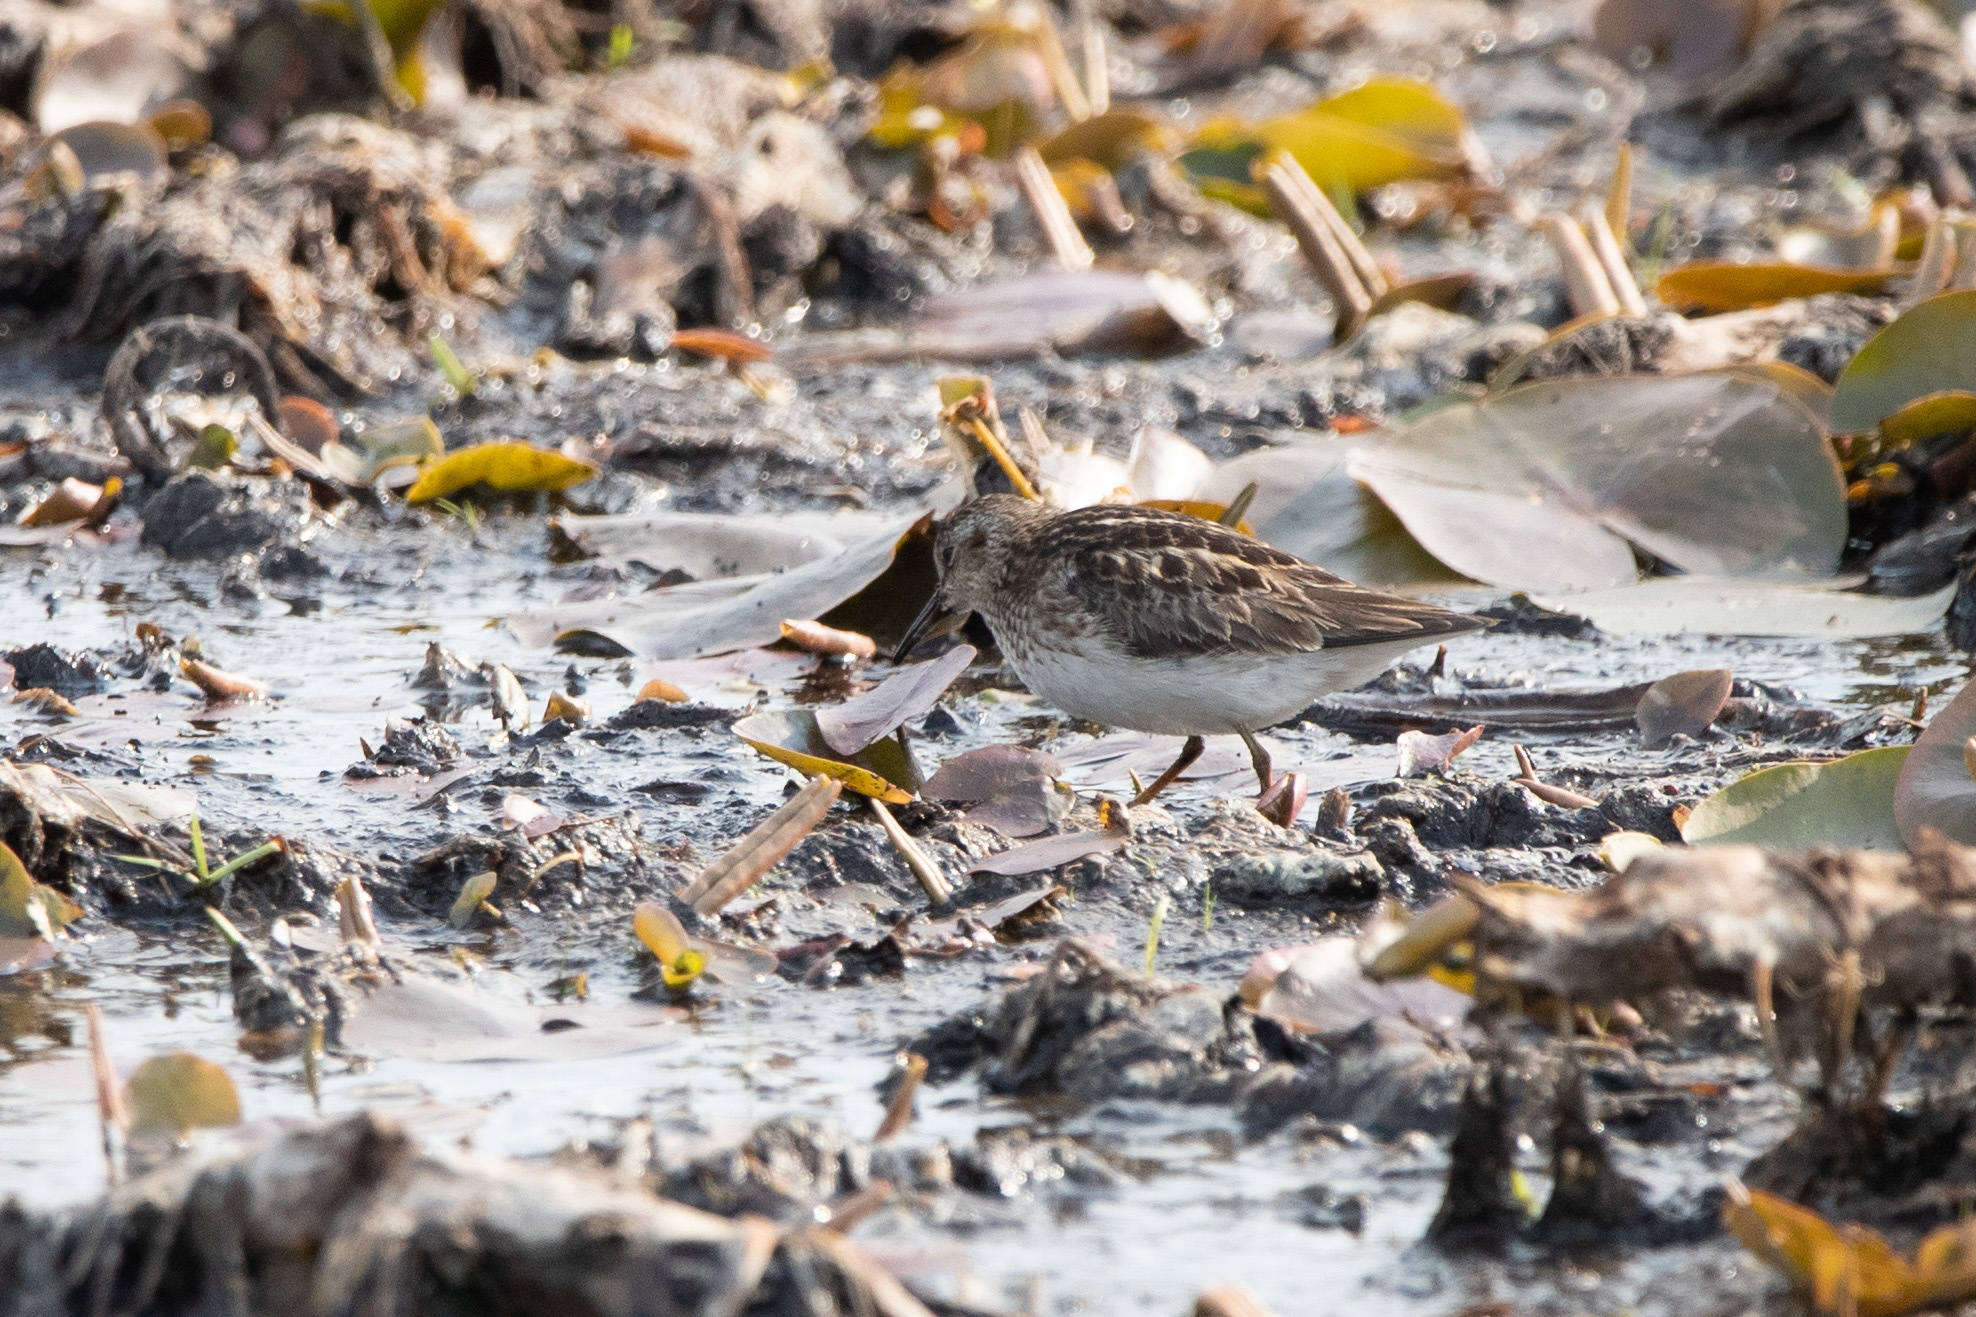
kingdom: Animalia
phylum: Chordata
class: Aves
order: Charadriiformes
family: Scolopacidae
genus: Calidris
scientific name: Calidris minutilla
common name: Least sandpiper
